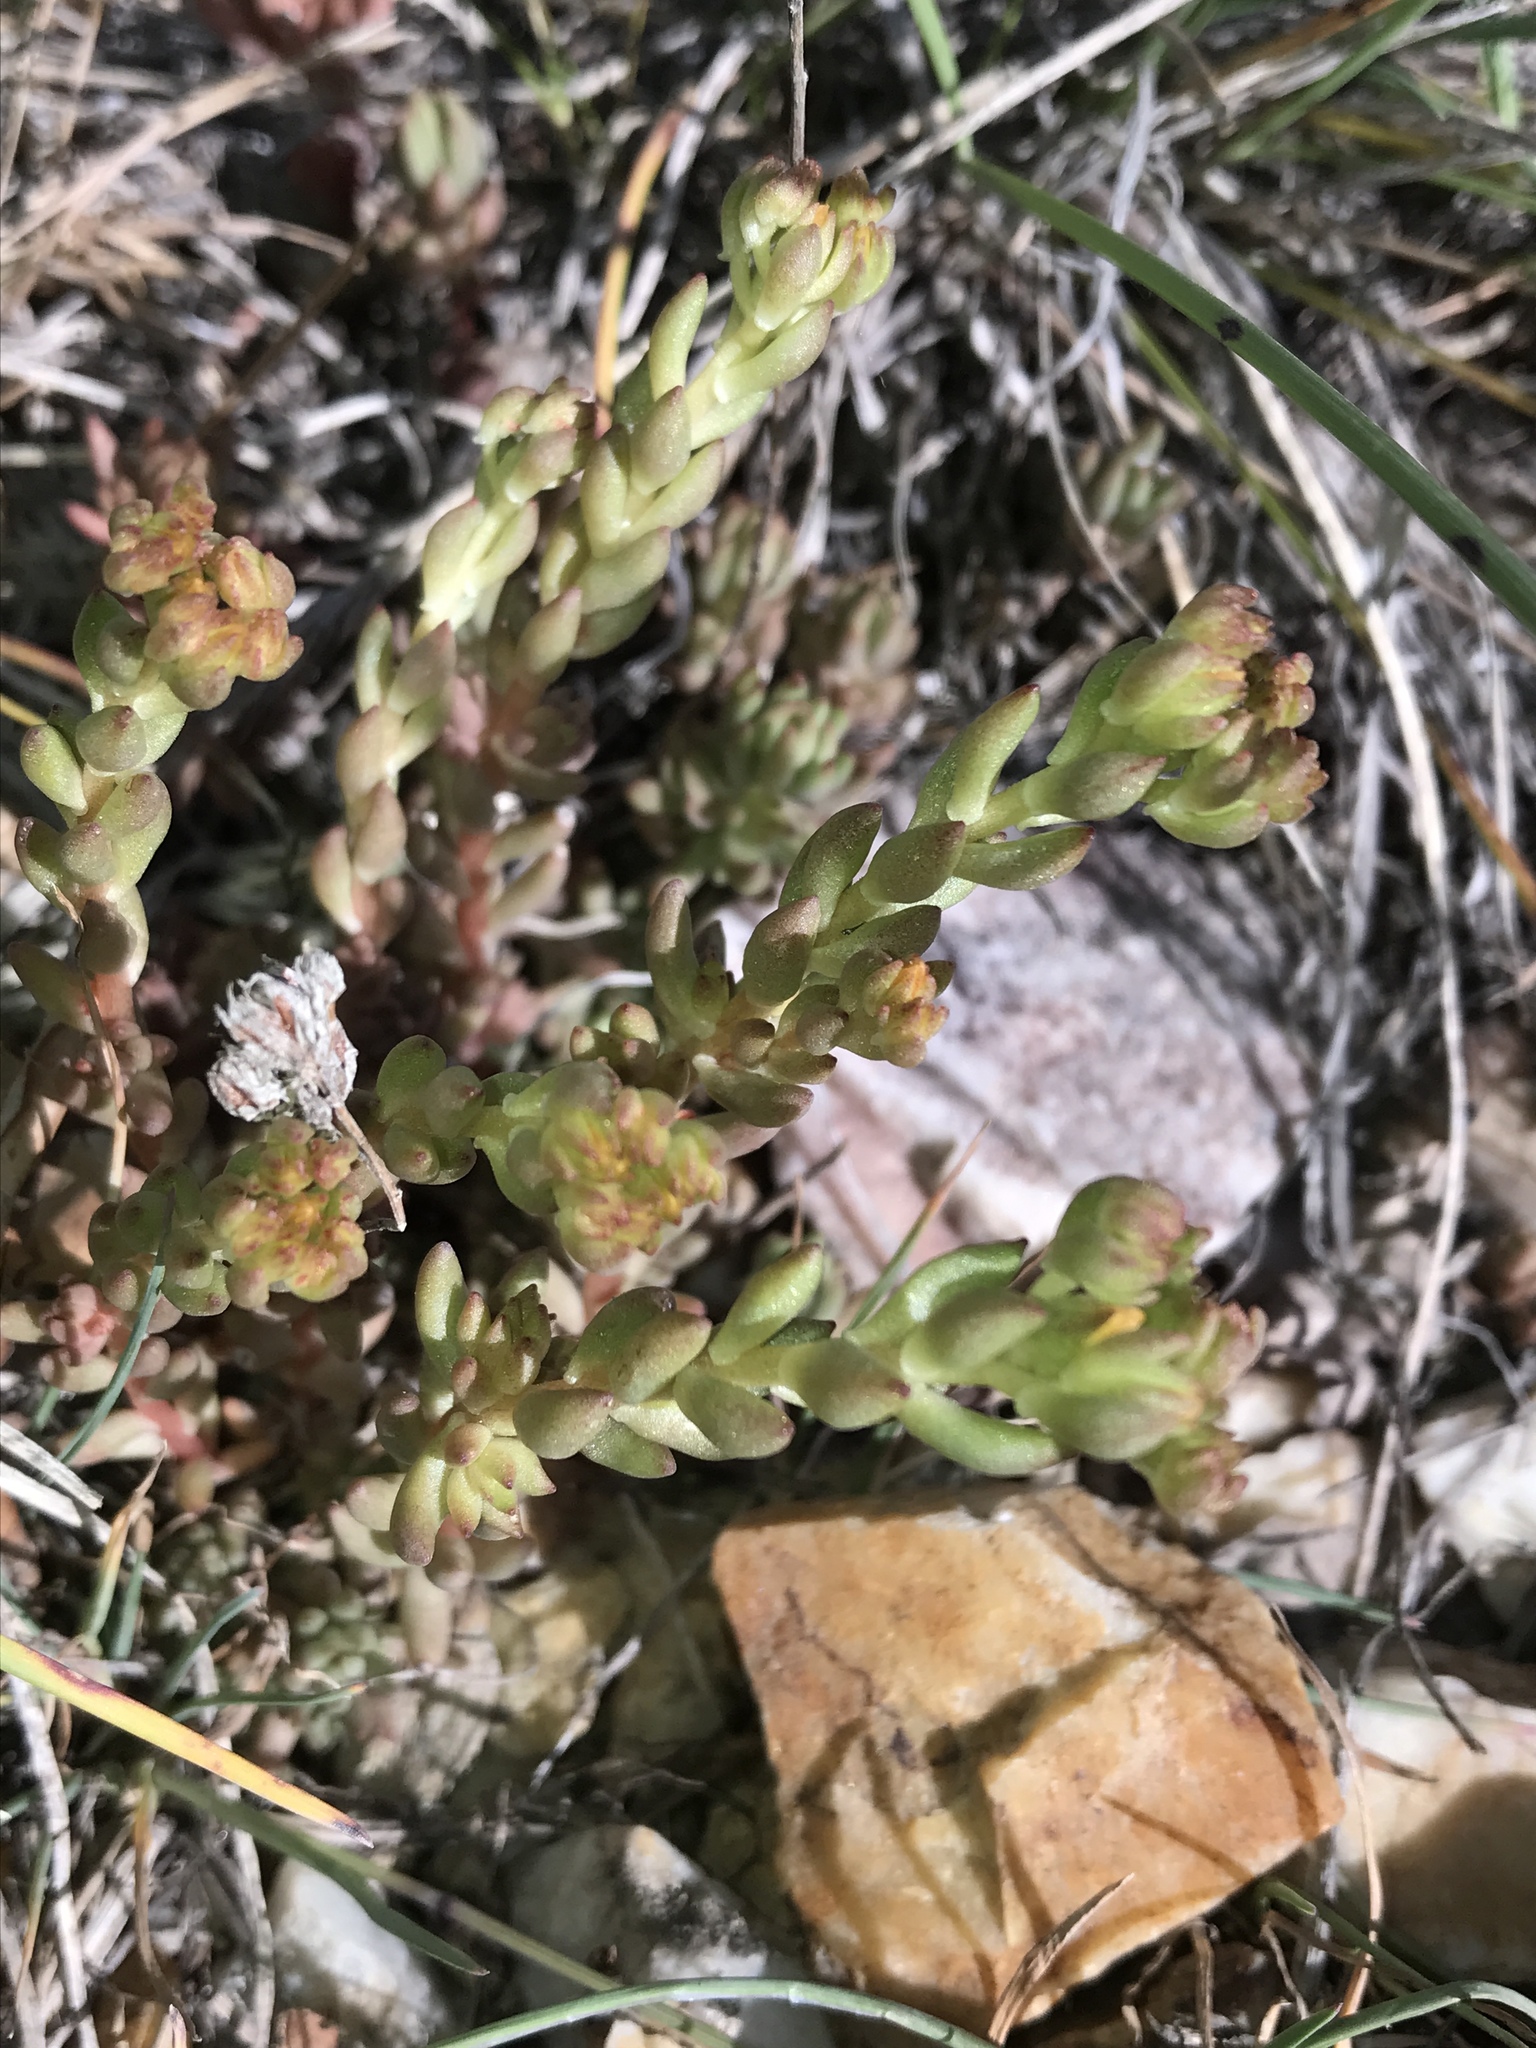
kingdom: Plantae
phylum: Tracheophyta
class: Magnoliopsida
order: Saxifragales
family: Crassulaceae
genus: Sedum
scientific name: Sedum lanceolatum
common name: Common stonecrop
